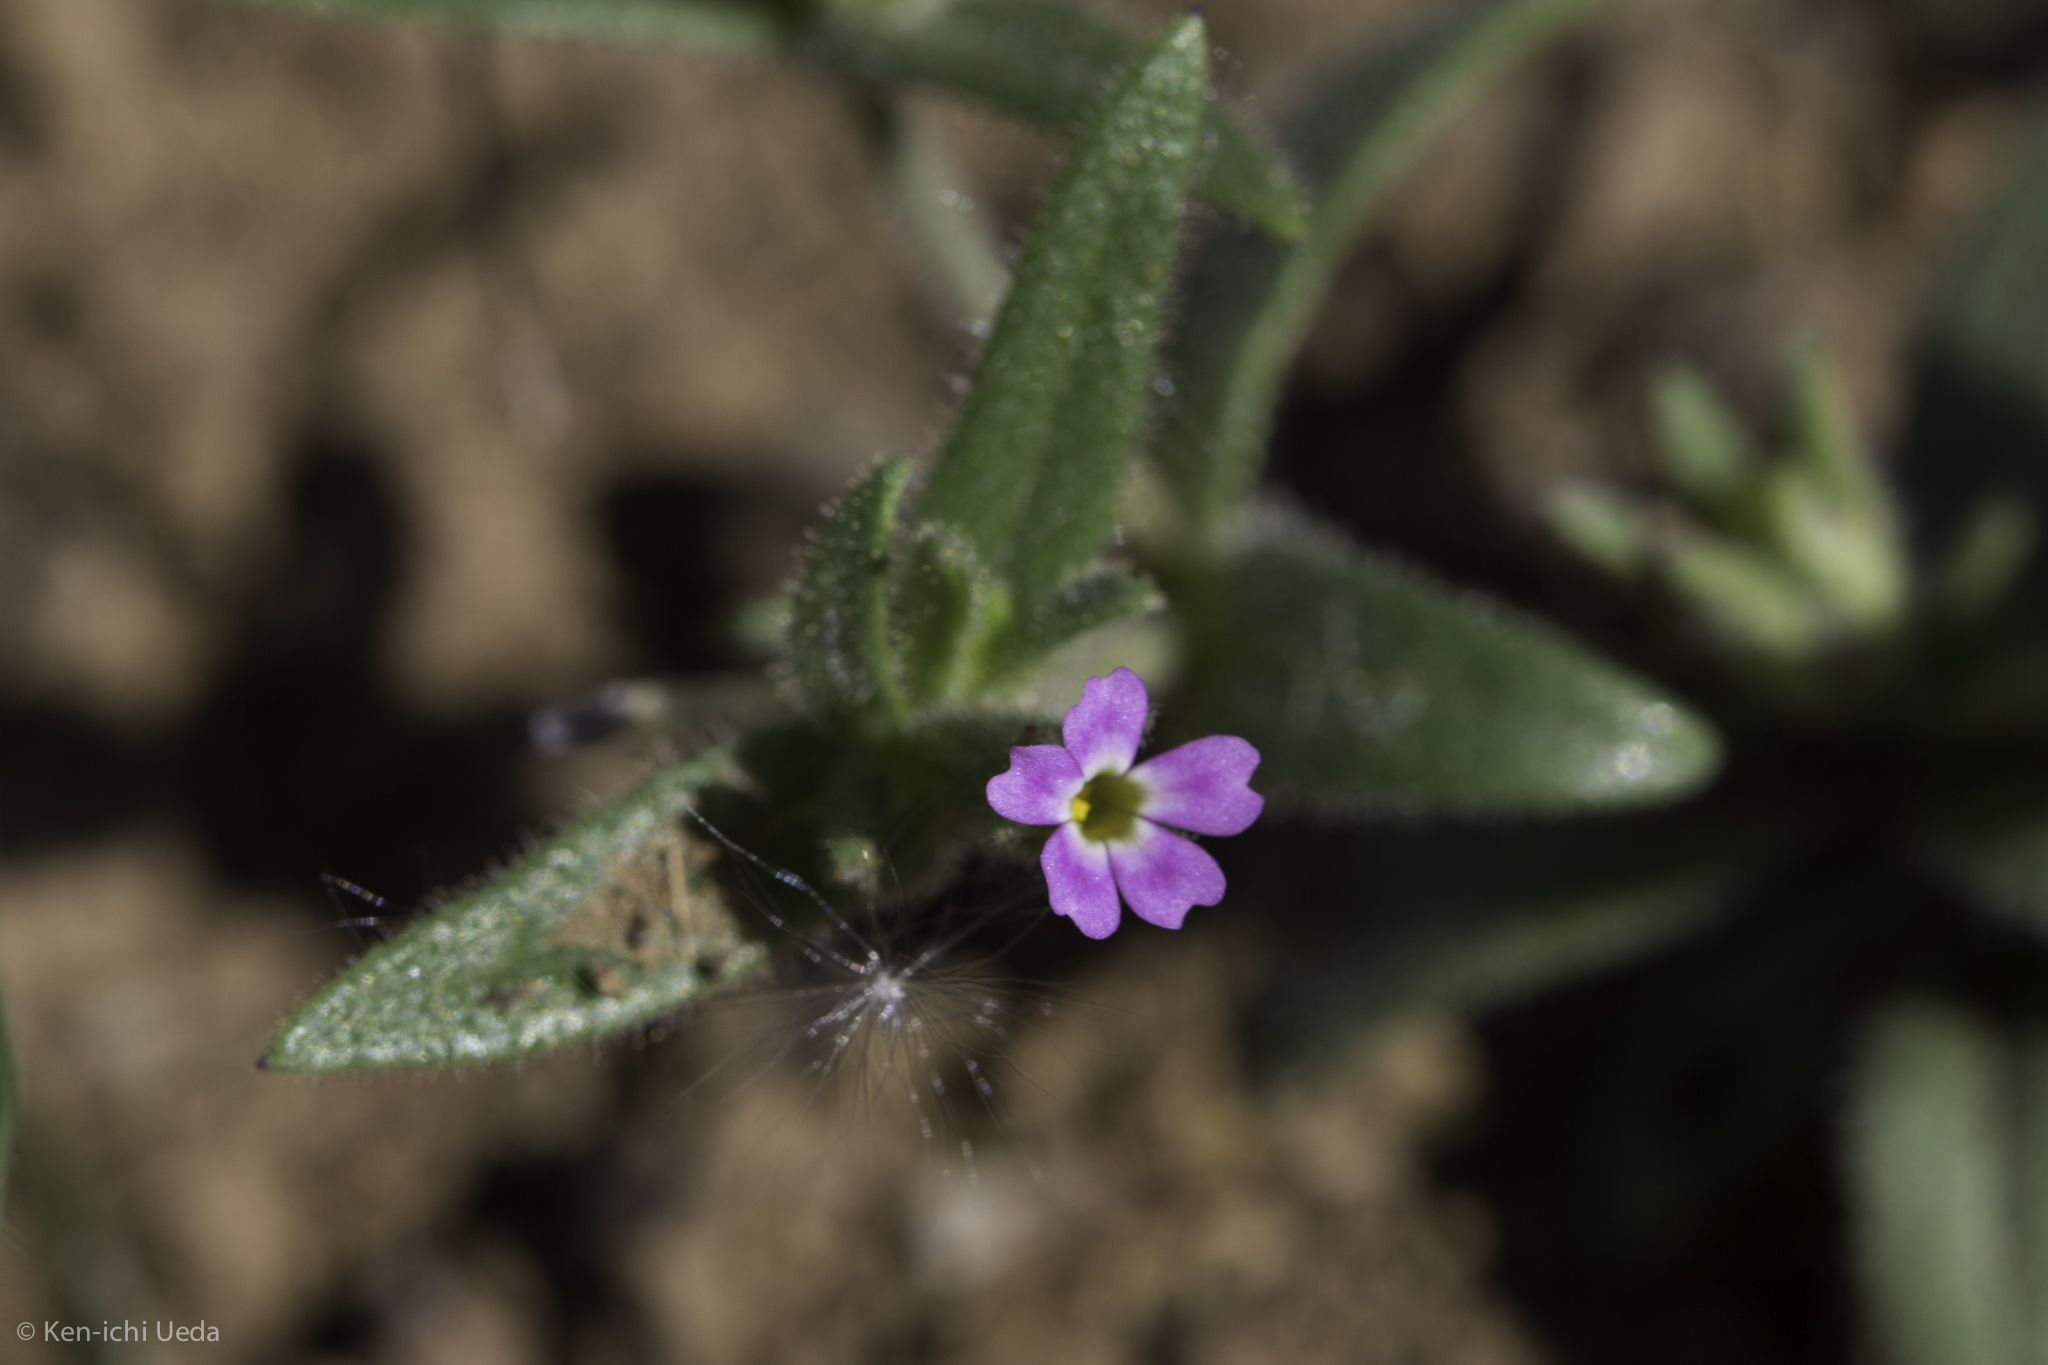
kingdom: Plantae
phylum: Tracheophyta
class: Magnoliopsida
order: Ericales
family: Polemoniaceae
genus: Phlox
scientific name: Phlox gracilis
